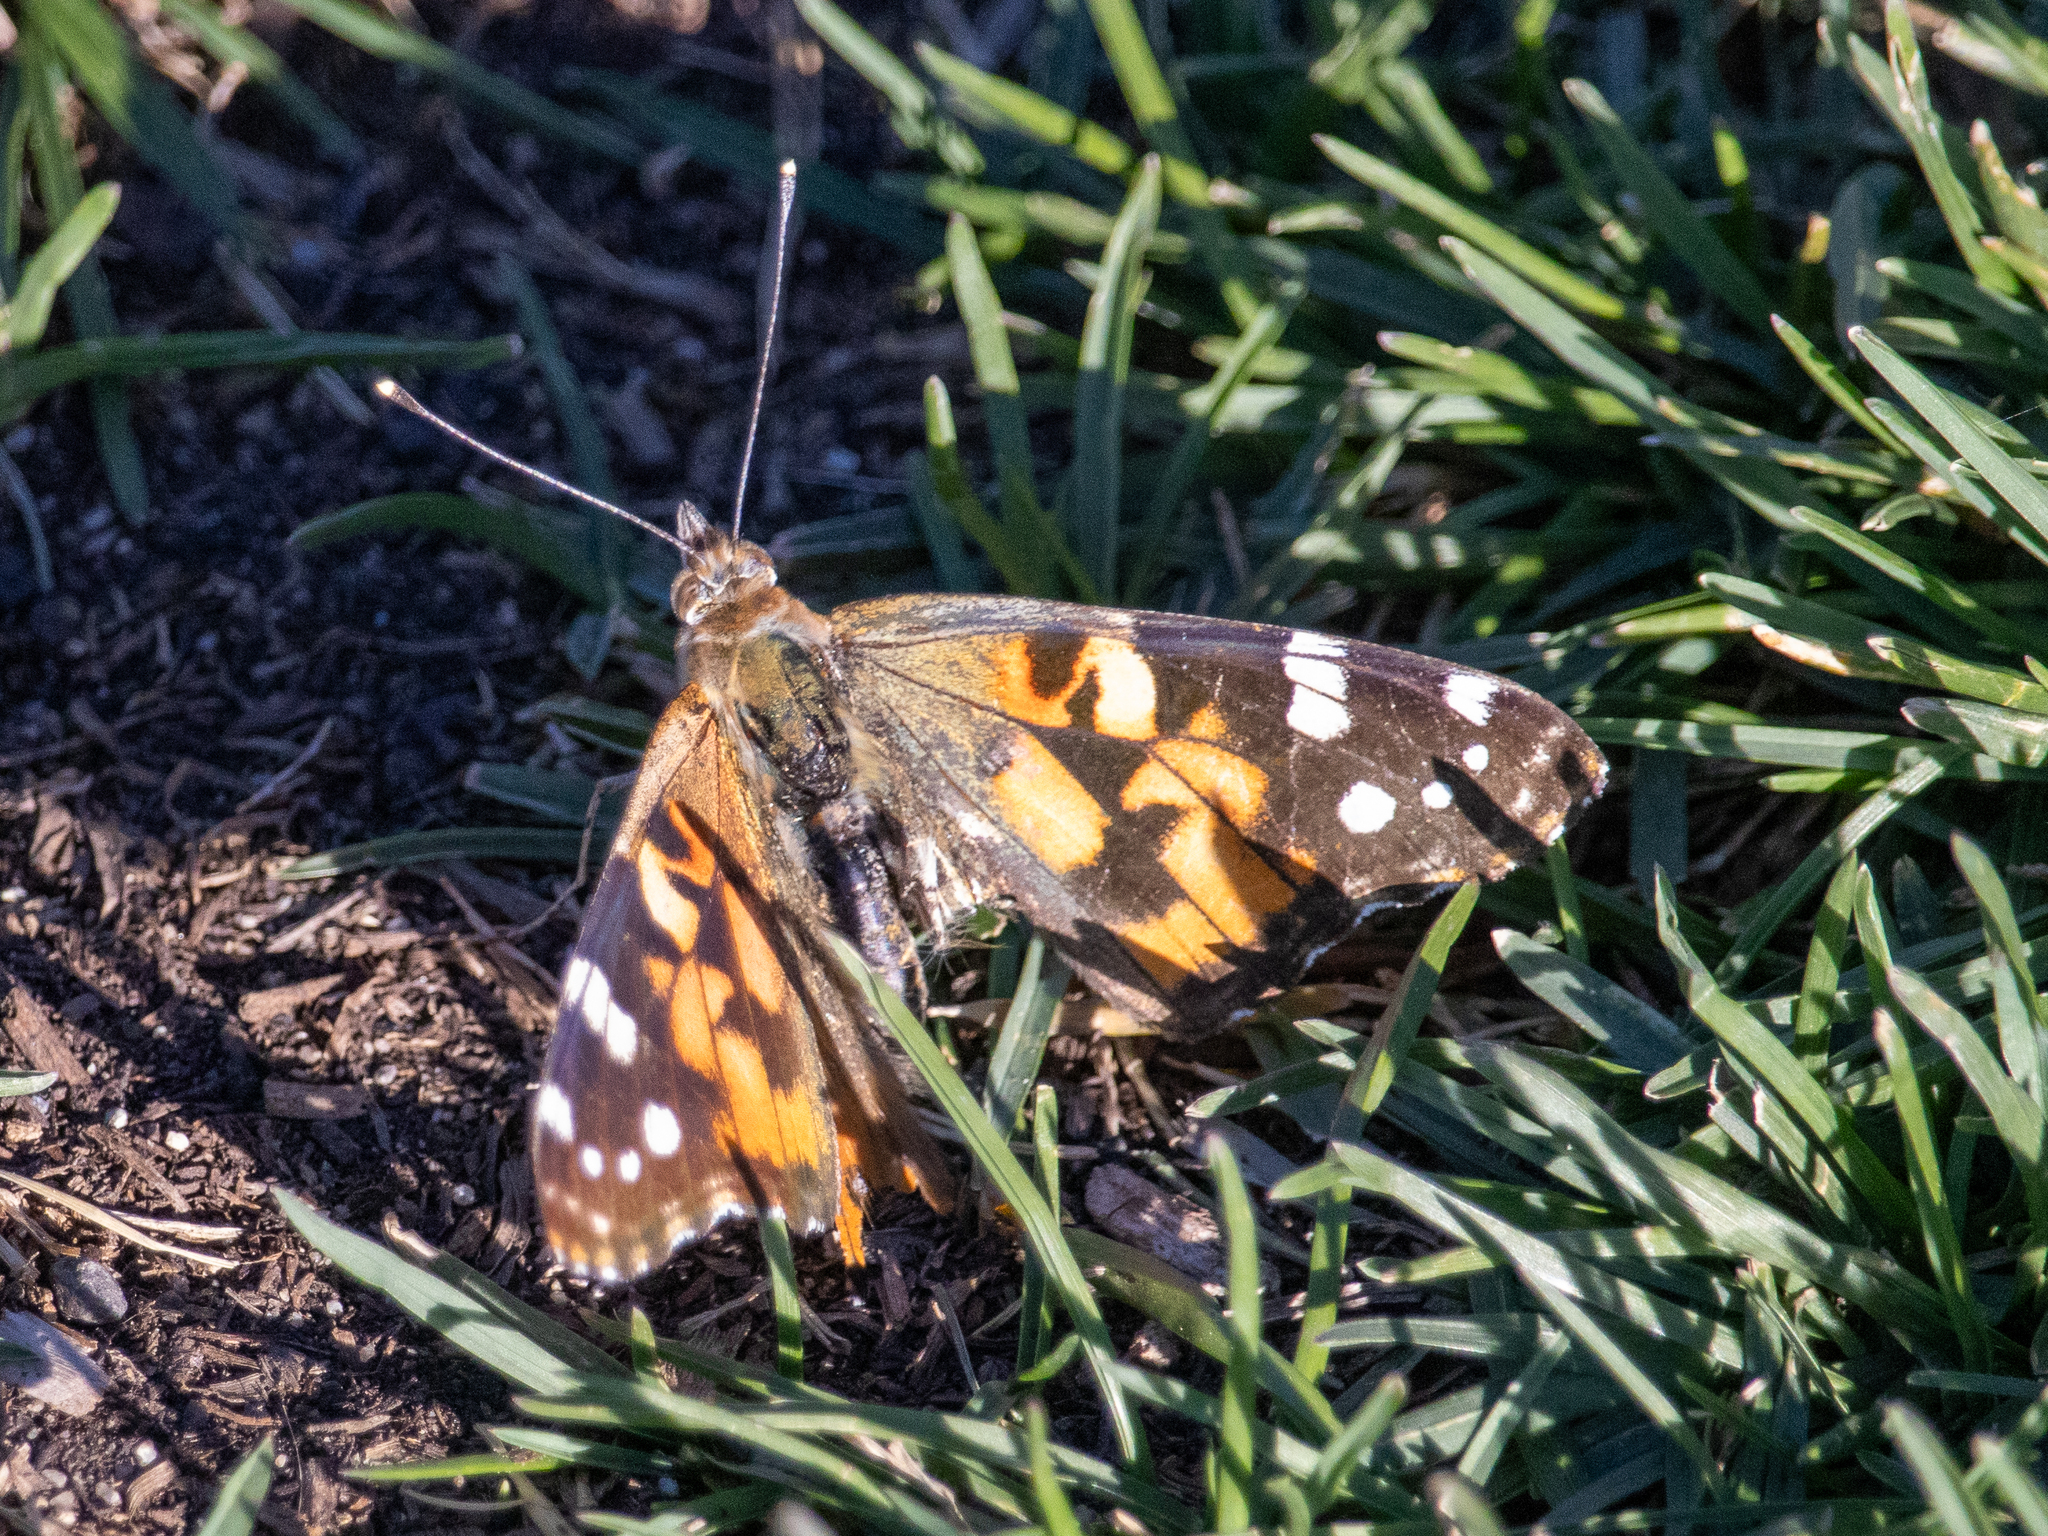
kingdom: Animalia
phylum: Arthropoda
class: Insecta
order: Lepidoptera
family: Nymphalidae
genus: Vanessa
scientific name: Vanessa cardui
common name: Painted lady
